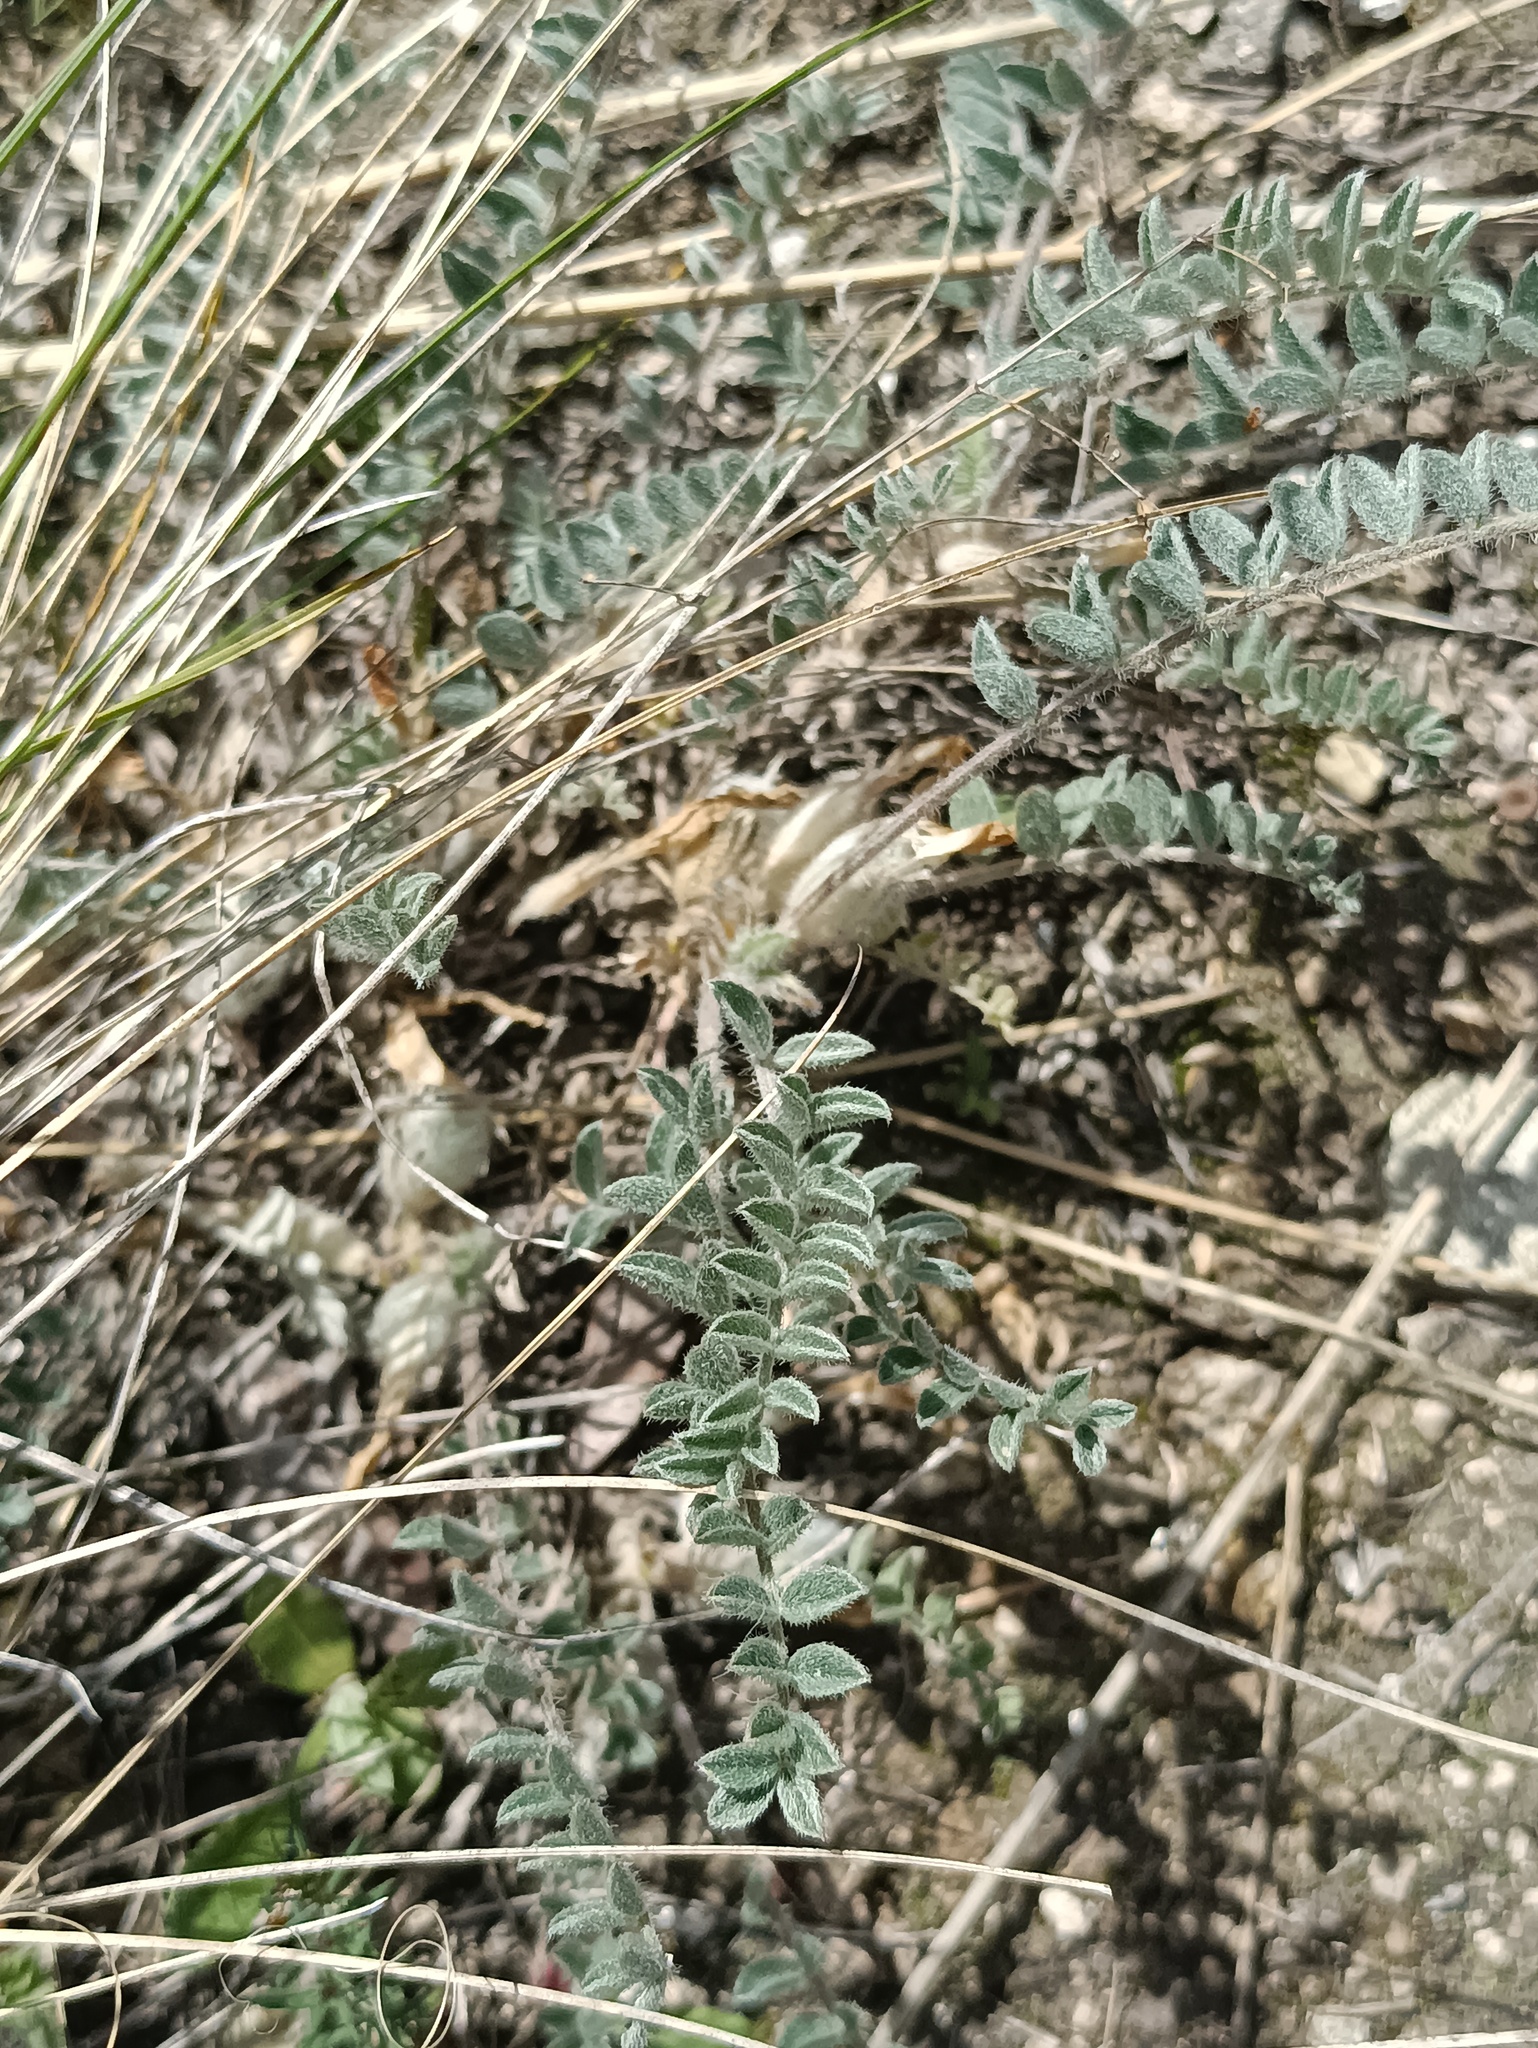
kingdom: Plantae
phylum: Tracheophyta
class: Magnoliopsida
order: Fabales
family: Fabaceae
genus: Astragalus
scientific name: Astragalus testiculatus
